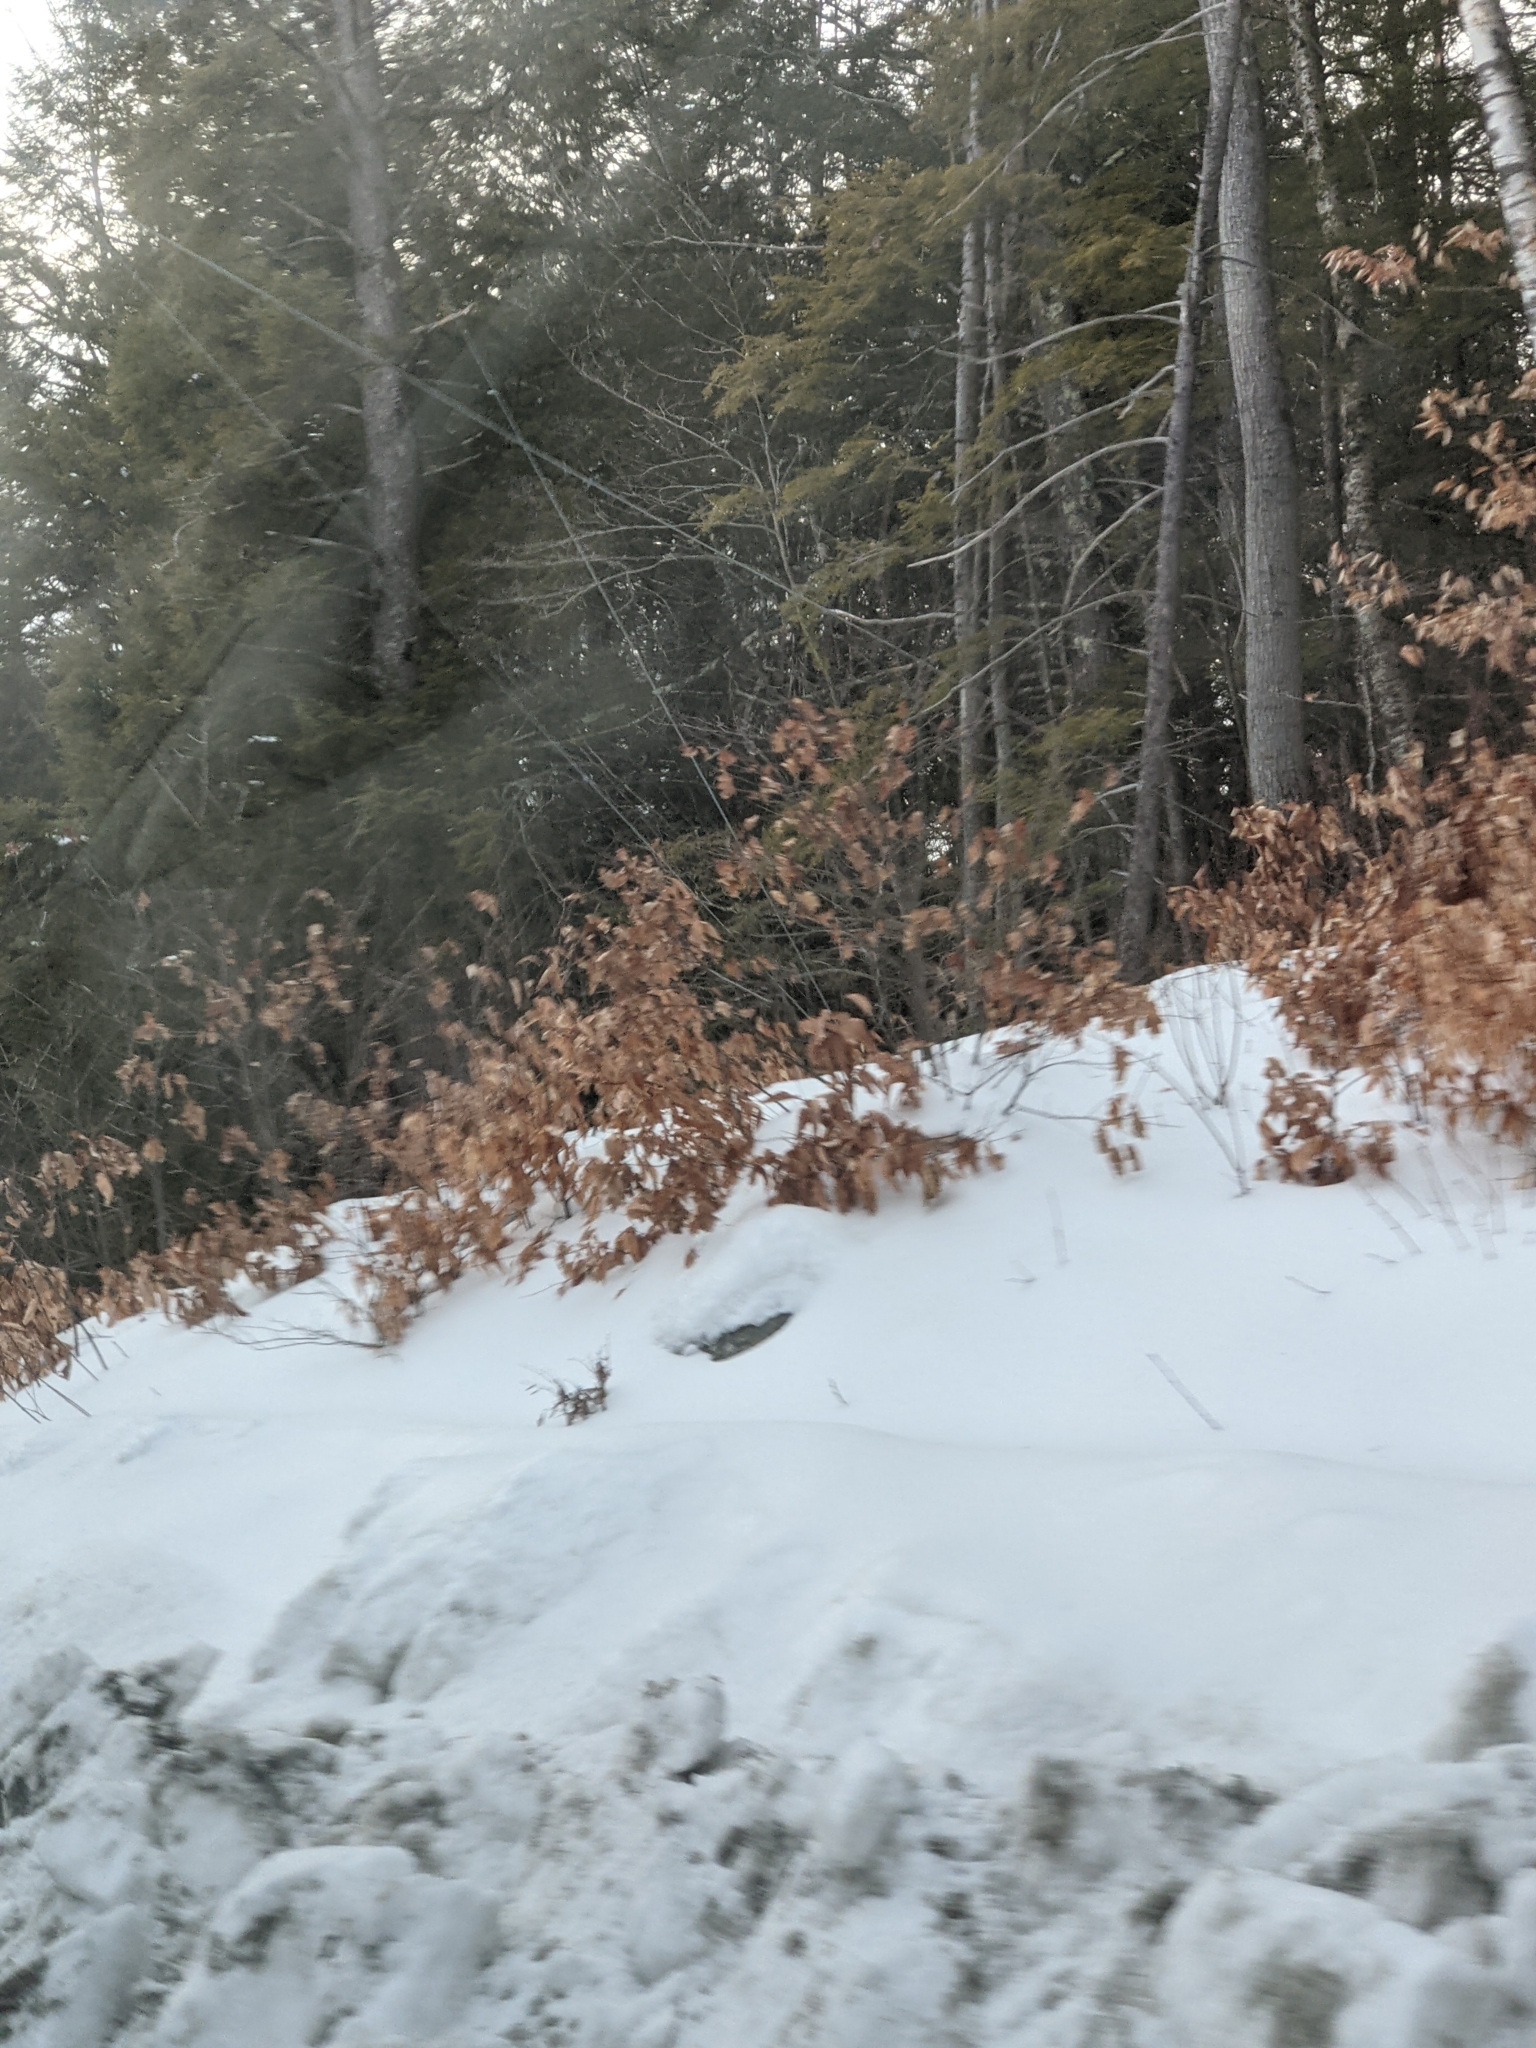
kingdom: Plantae
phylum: Tracheophyta
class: Magnoliopsida
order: Fagales
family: Fagaceae
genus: Fagus
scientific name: Fagus grandifolia
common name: American beech
